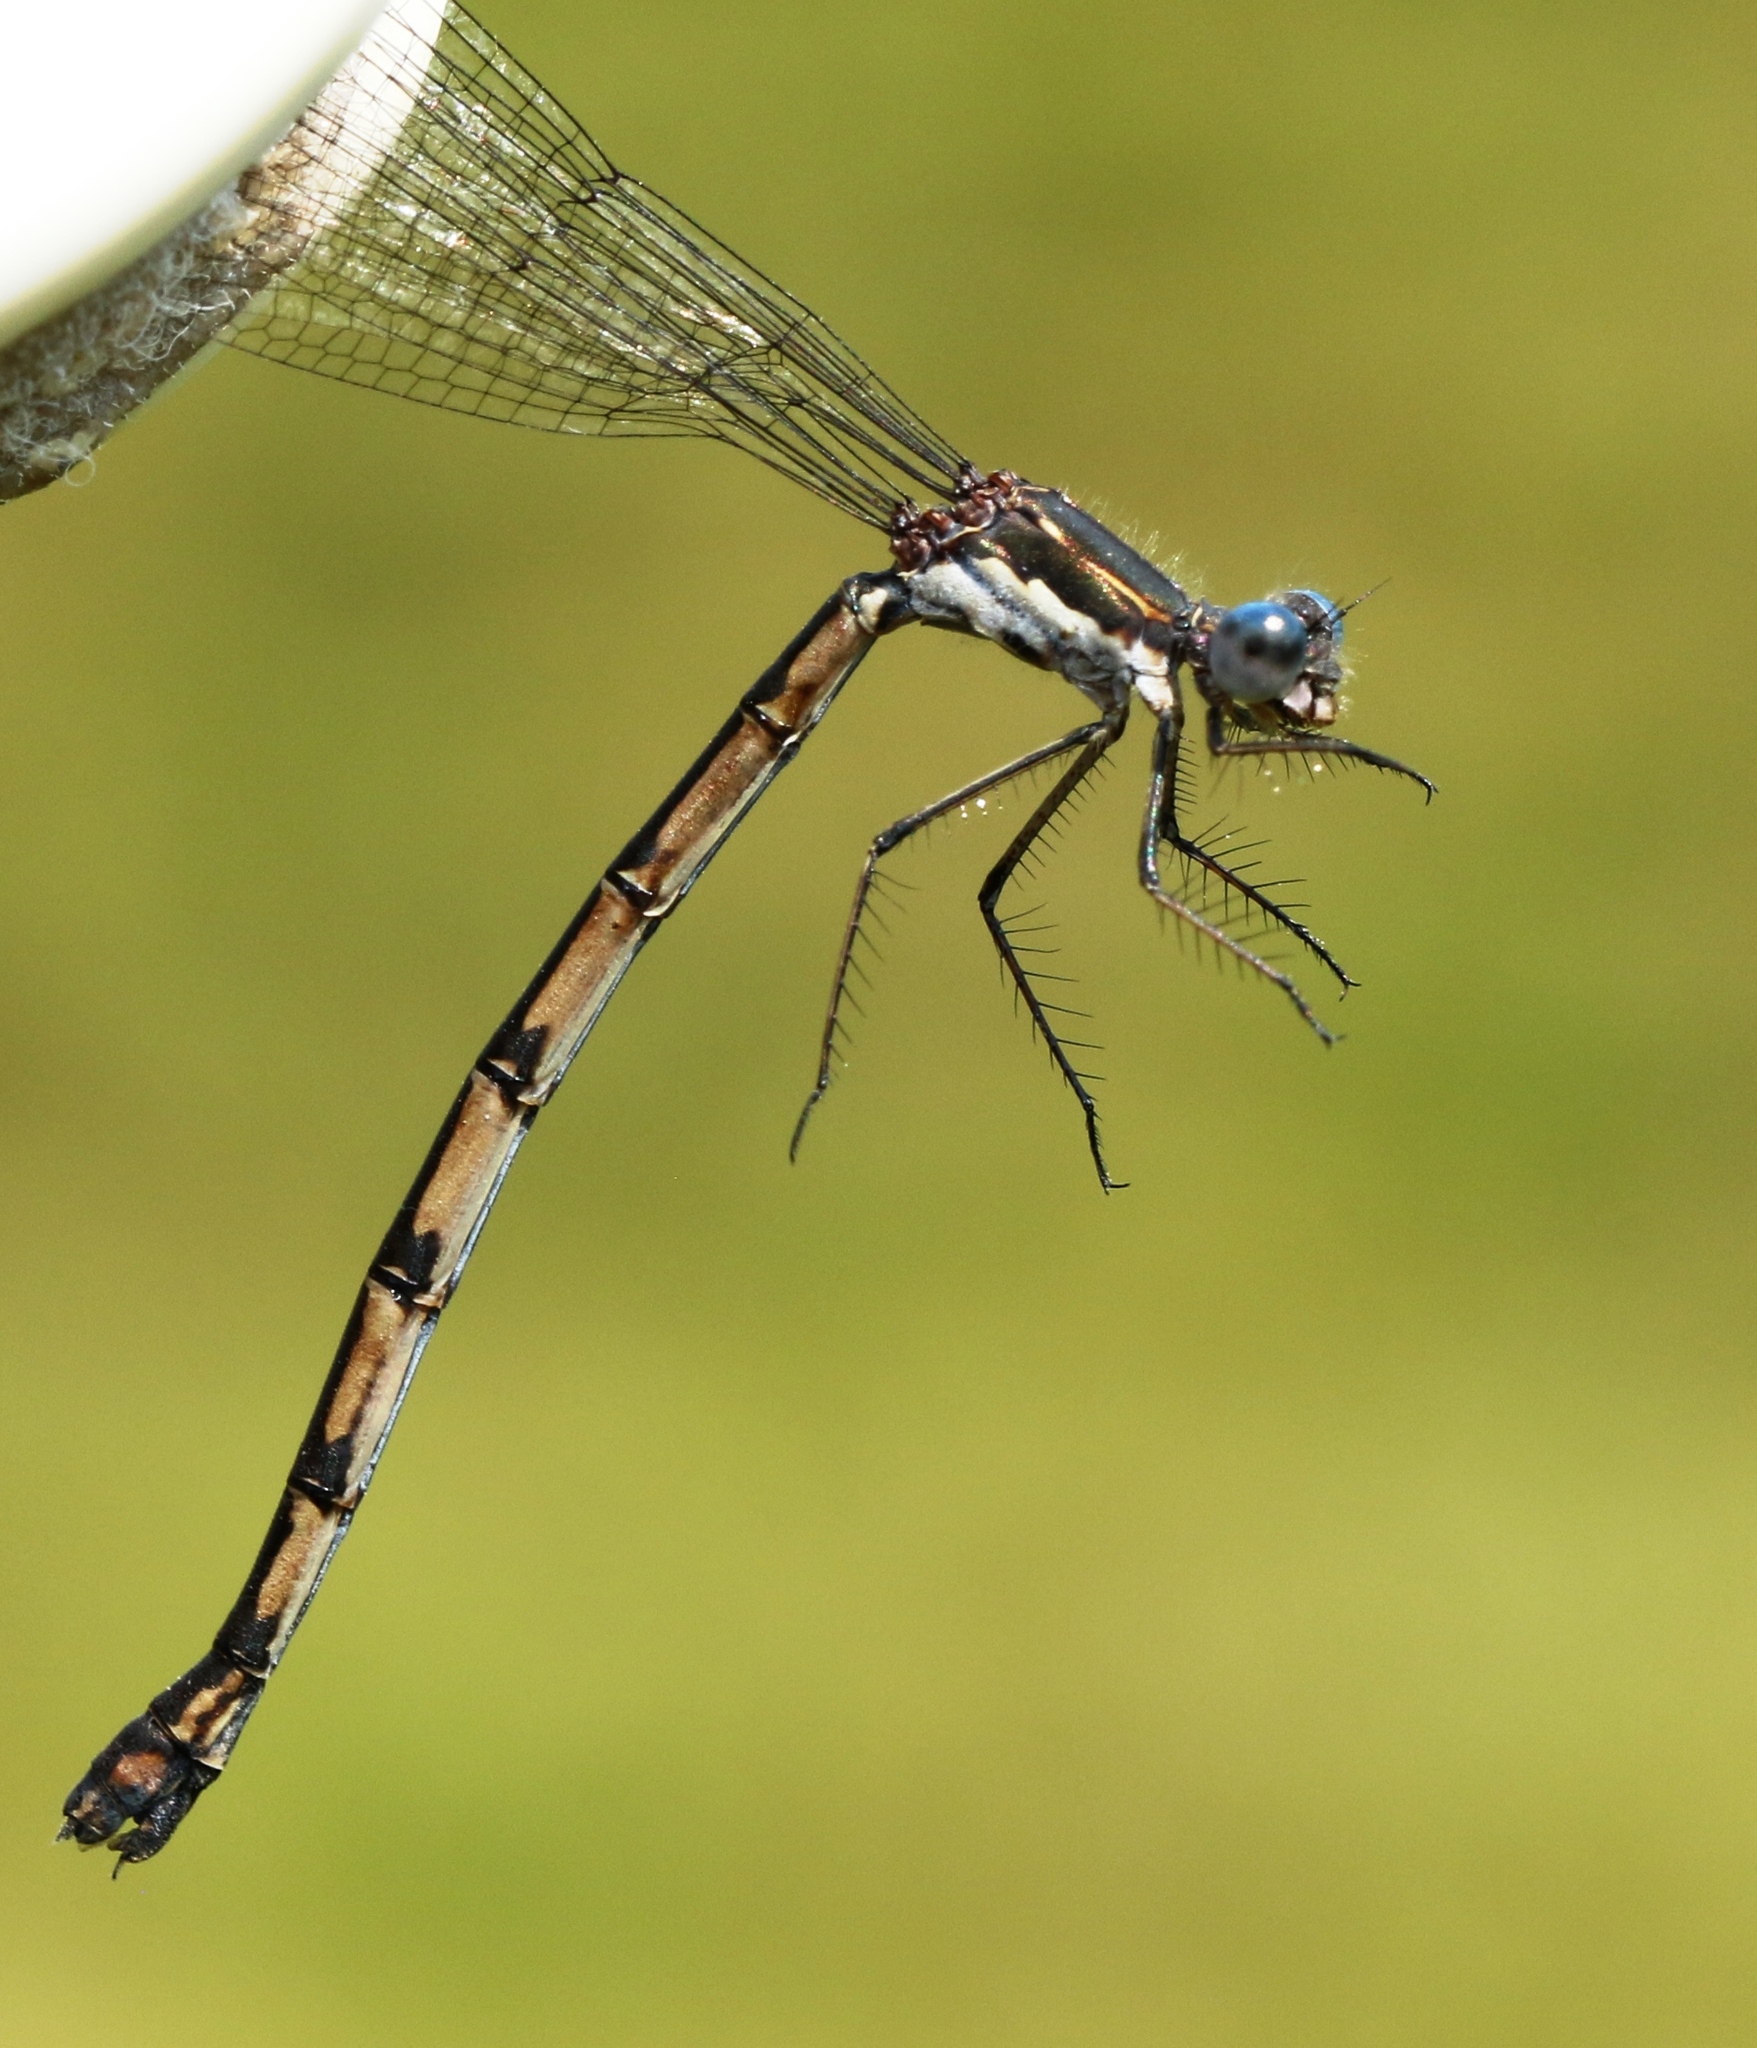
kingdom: Animalia
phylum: Arthropoda
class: Insecta
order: Odonata
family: Lestidae
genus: Lestes
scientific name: Lestes congener
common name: Spotted spreadwing
